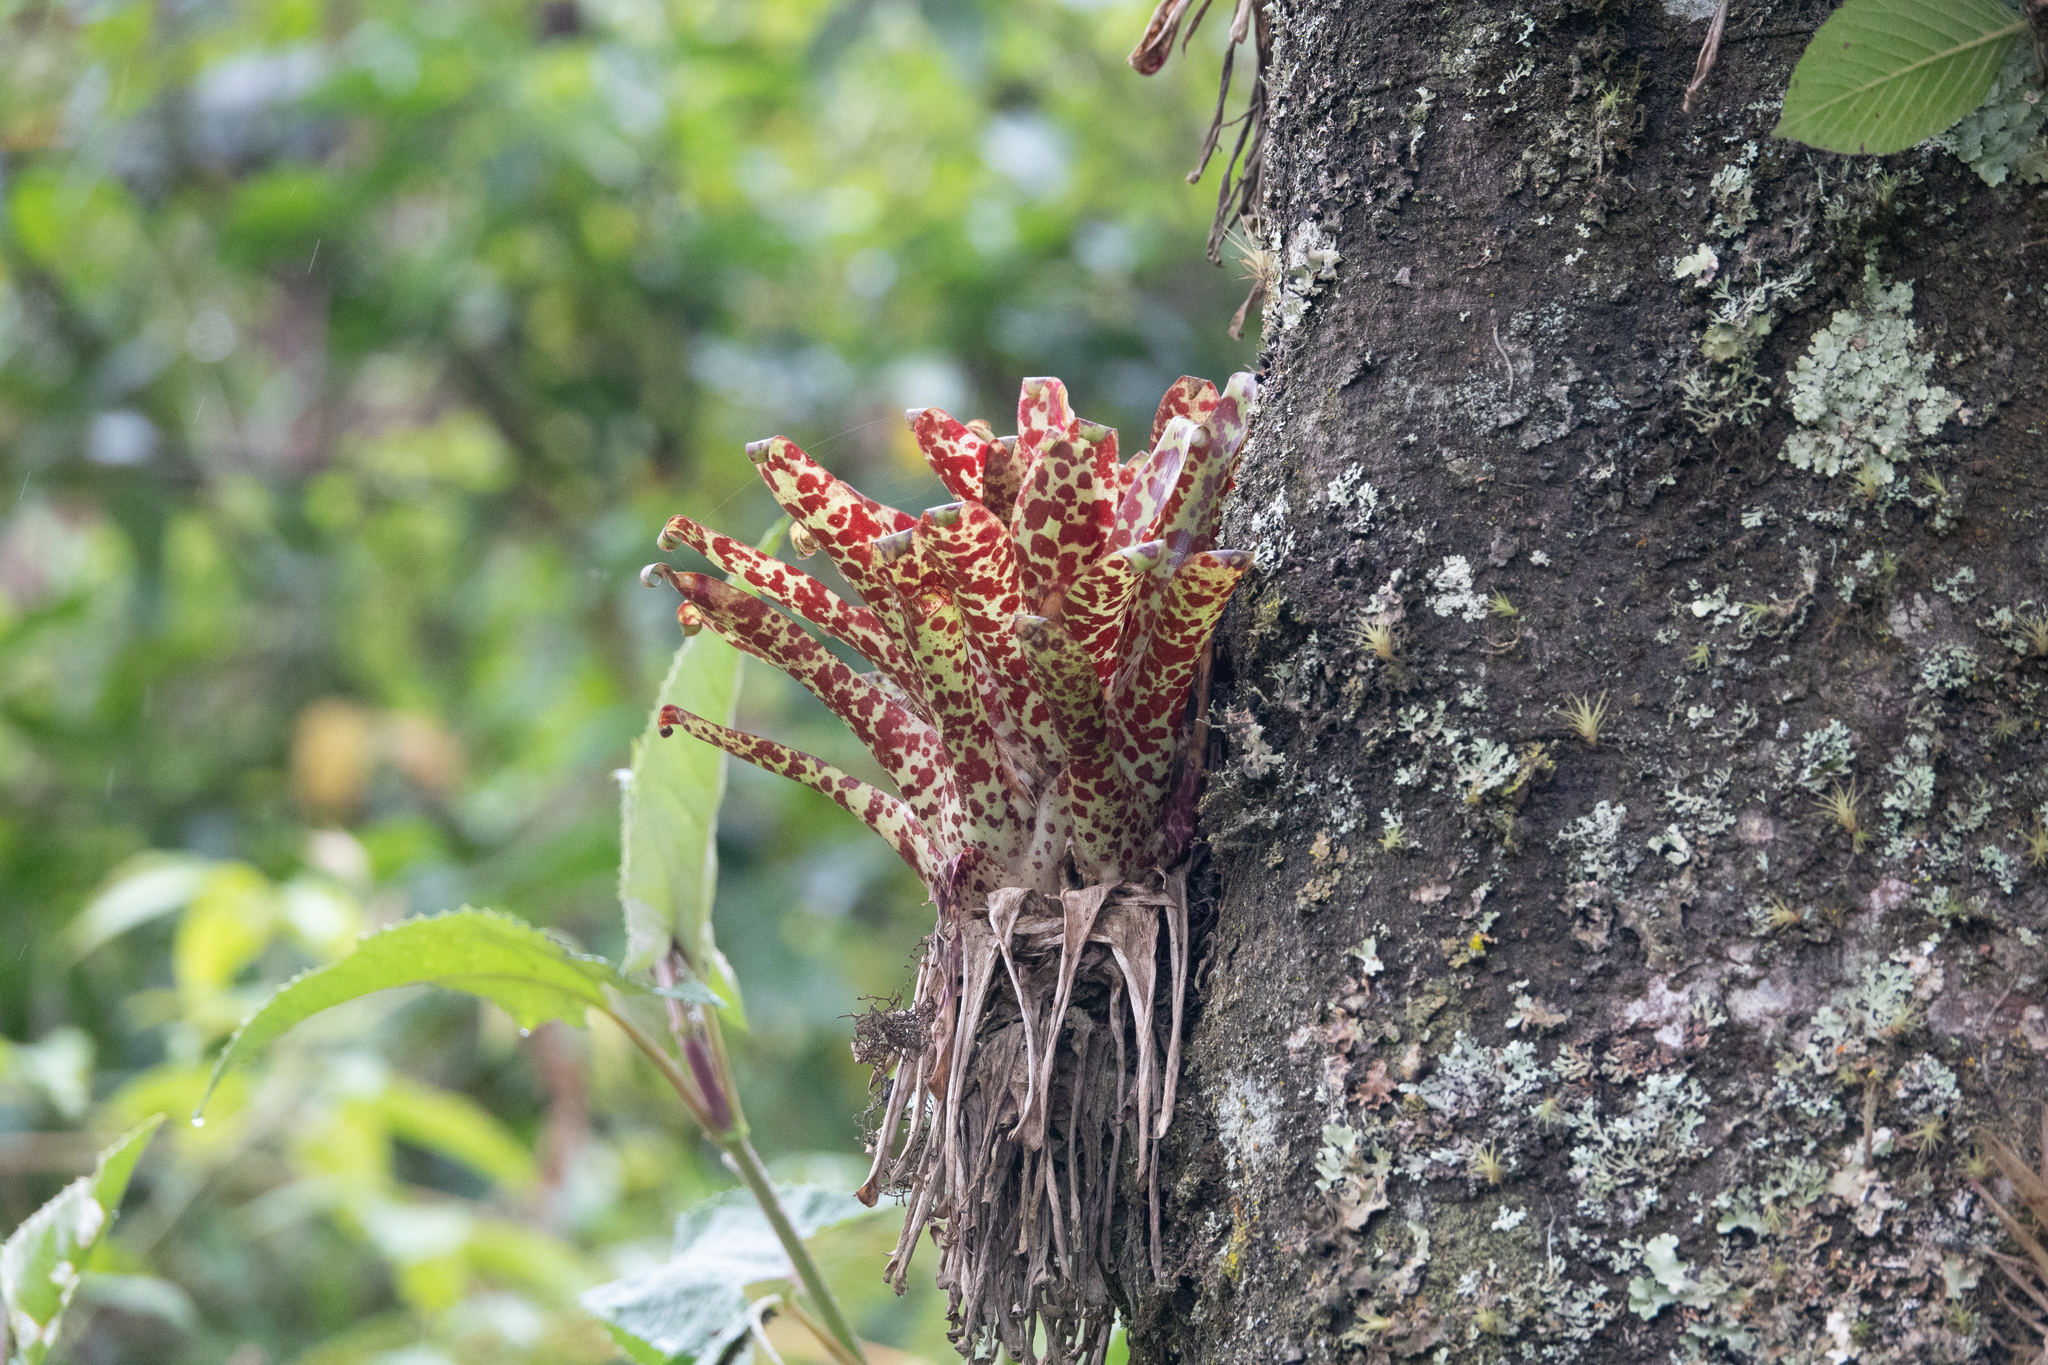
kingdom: Plantae
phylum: Tracheophyta
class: Liliopsida
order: Poales
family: Bromeliaceae
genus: Tillandsia
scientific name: Tillandsia biflora
